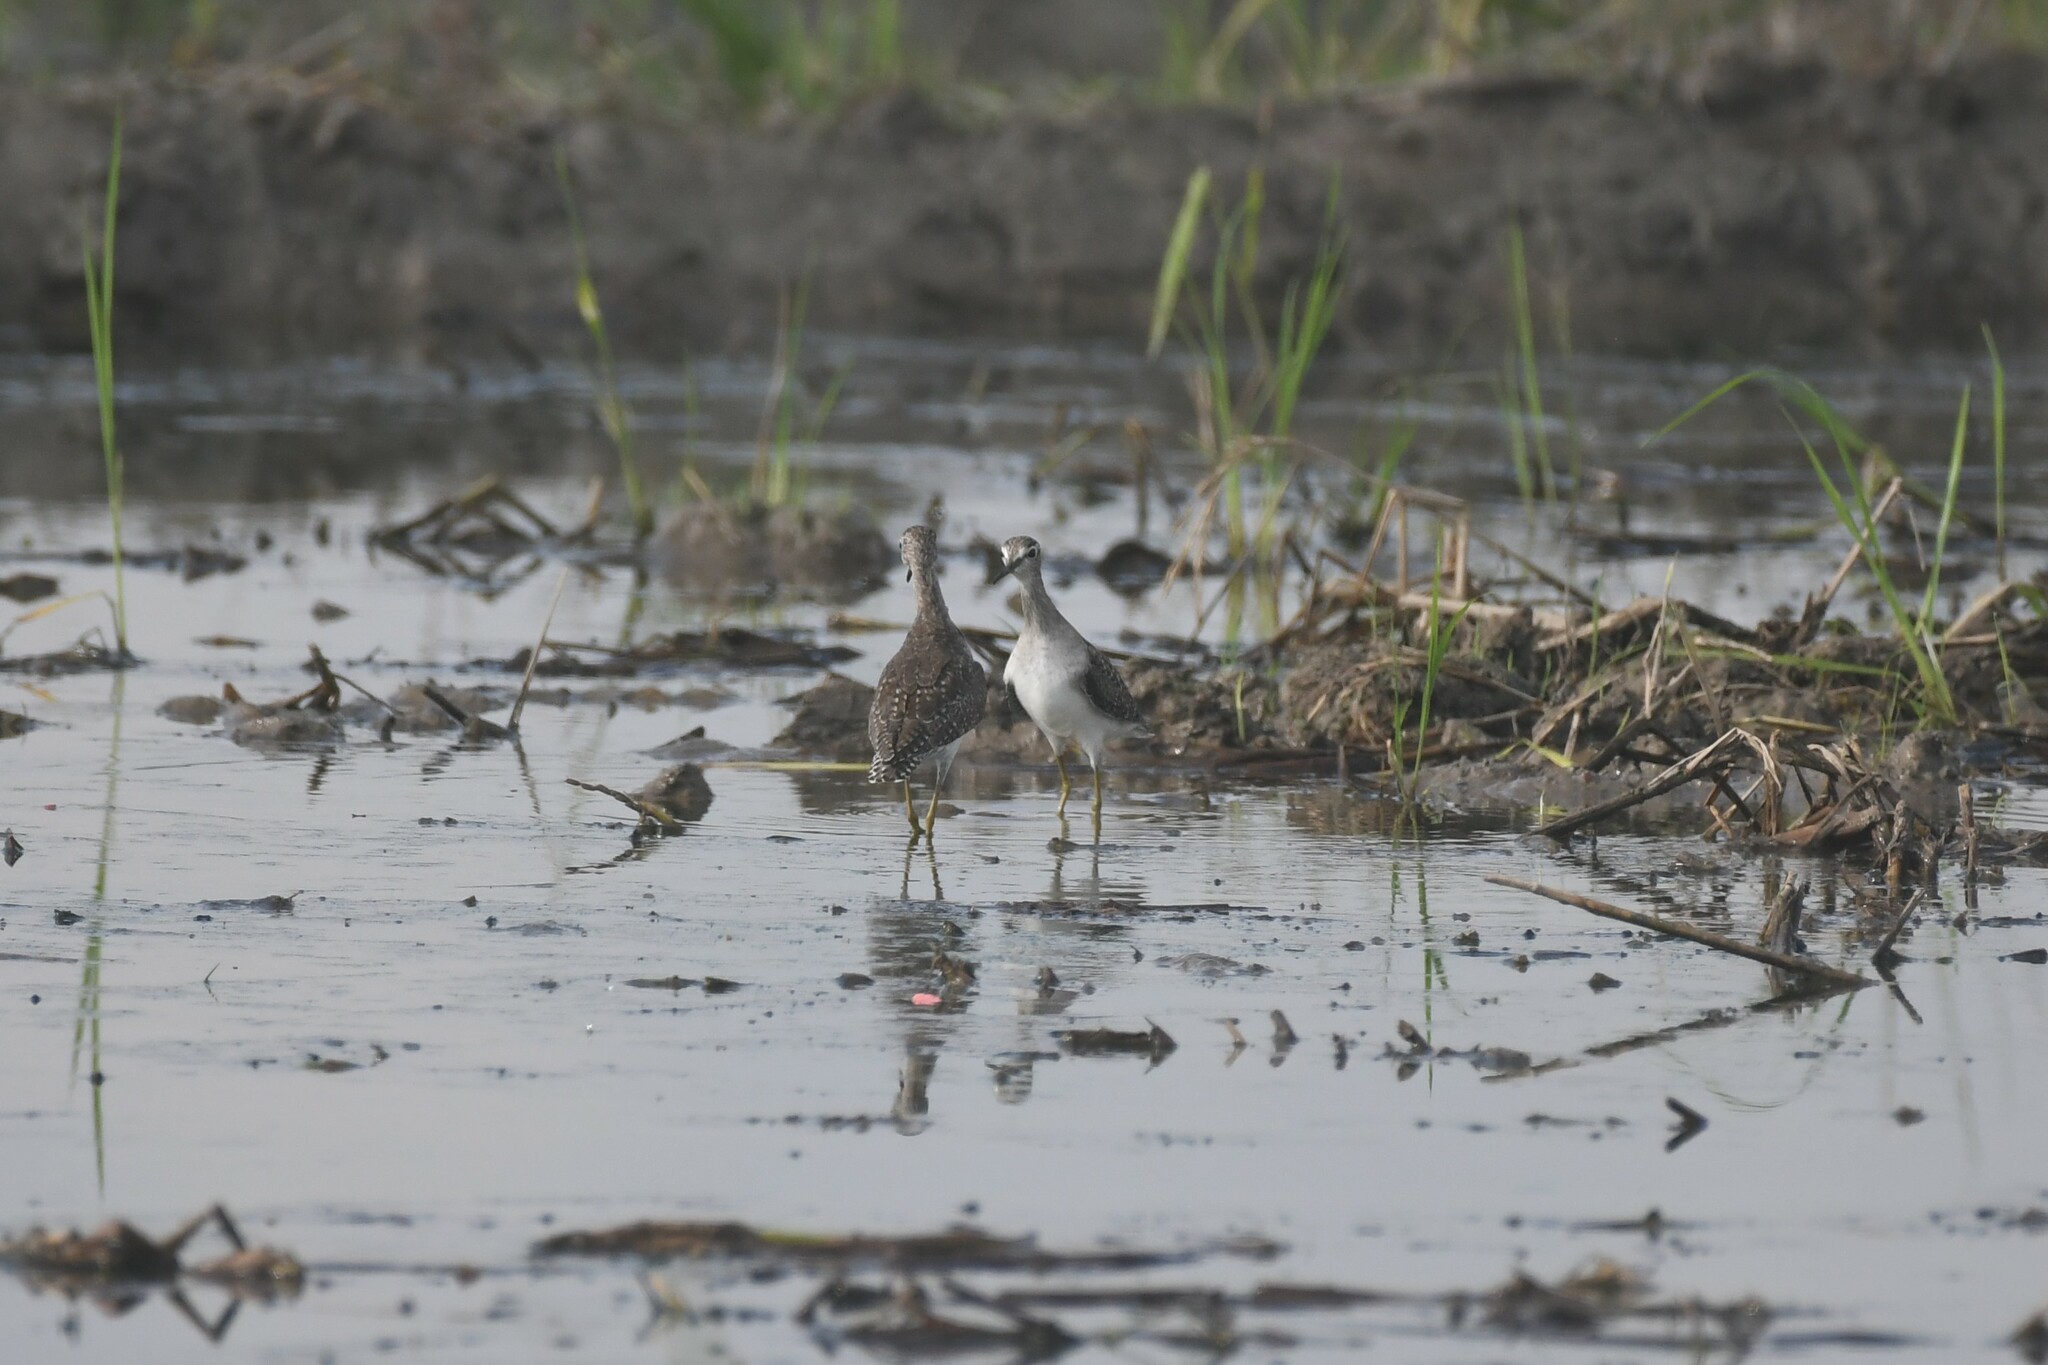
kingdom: Animalia
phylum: Chordata
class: Aves
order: Charadriiformes
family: Scolopacidae
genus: Tringa
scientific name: Tringa glareola
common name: Wood sandpiper
